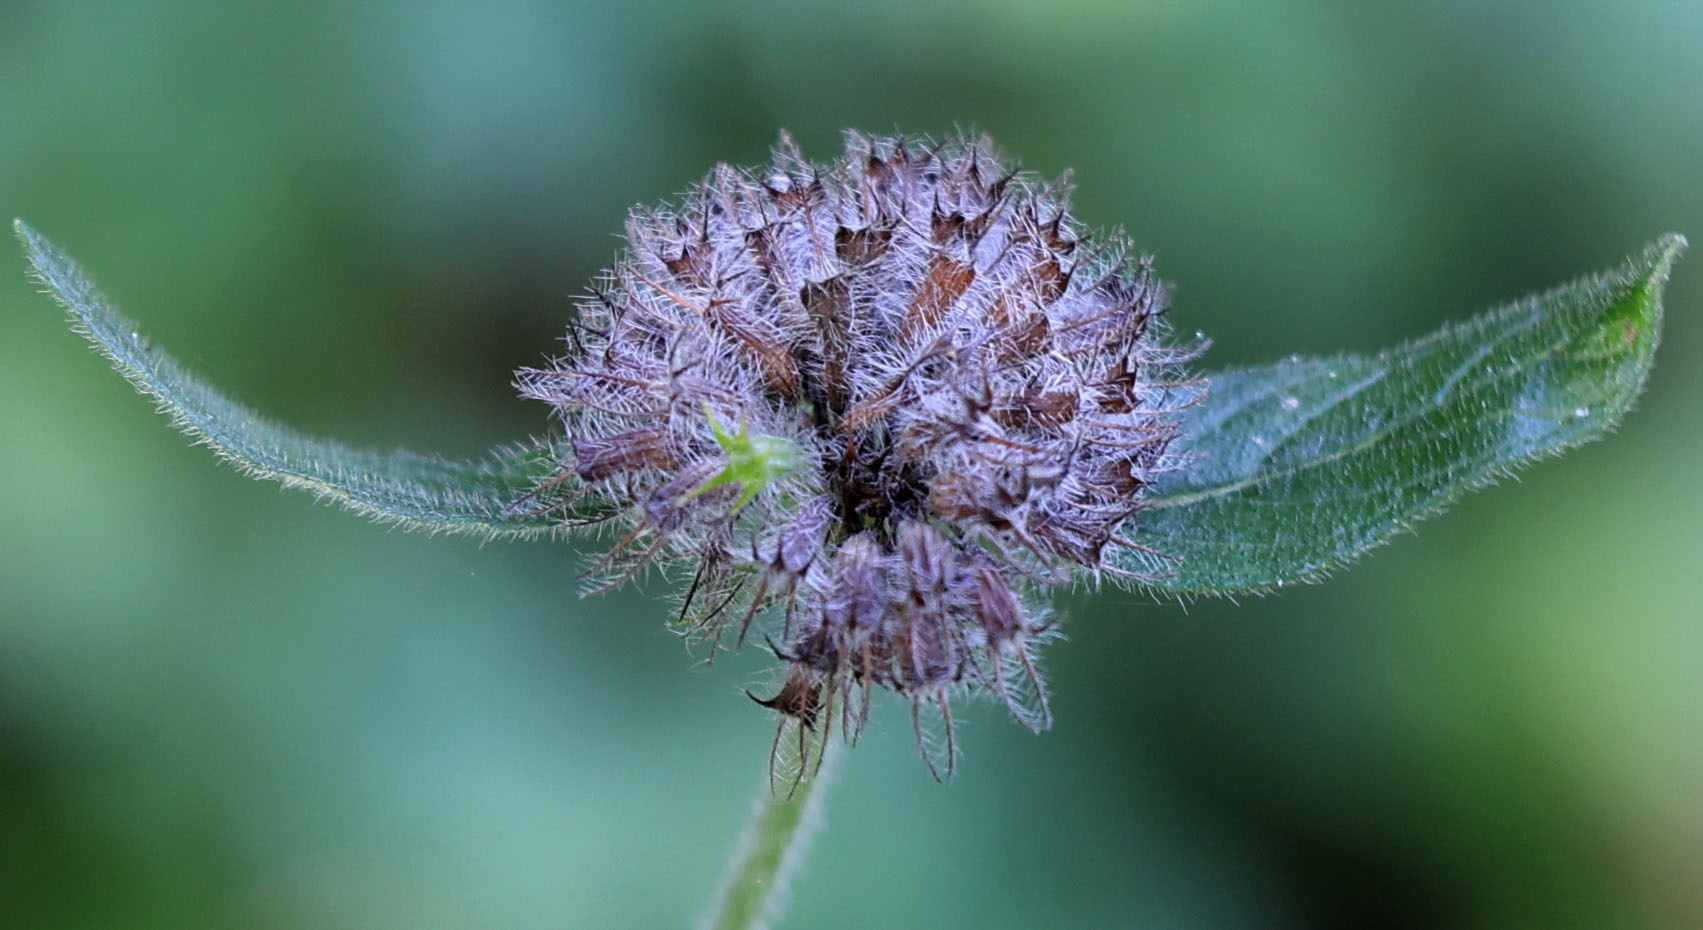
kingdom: Plantae
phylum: Tracheophyta
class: Magnoliopsida
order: Lamiales
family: Lamiaceae
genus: Clinopodium
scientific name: Clinopodium vulgare
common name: Wild basil
